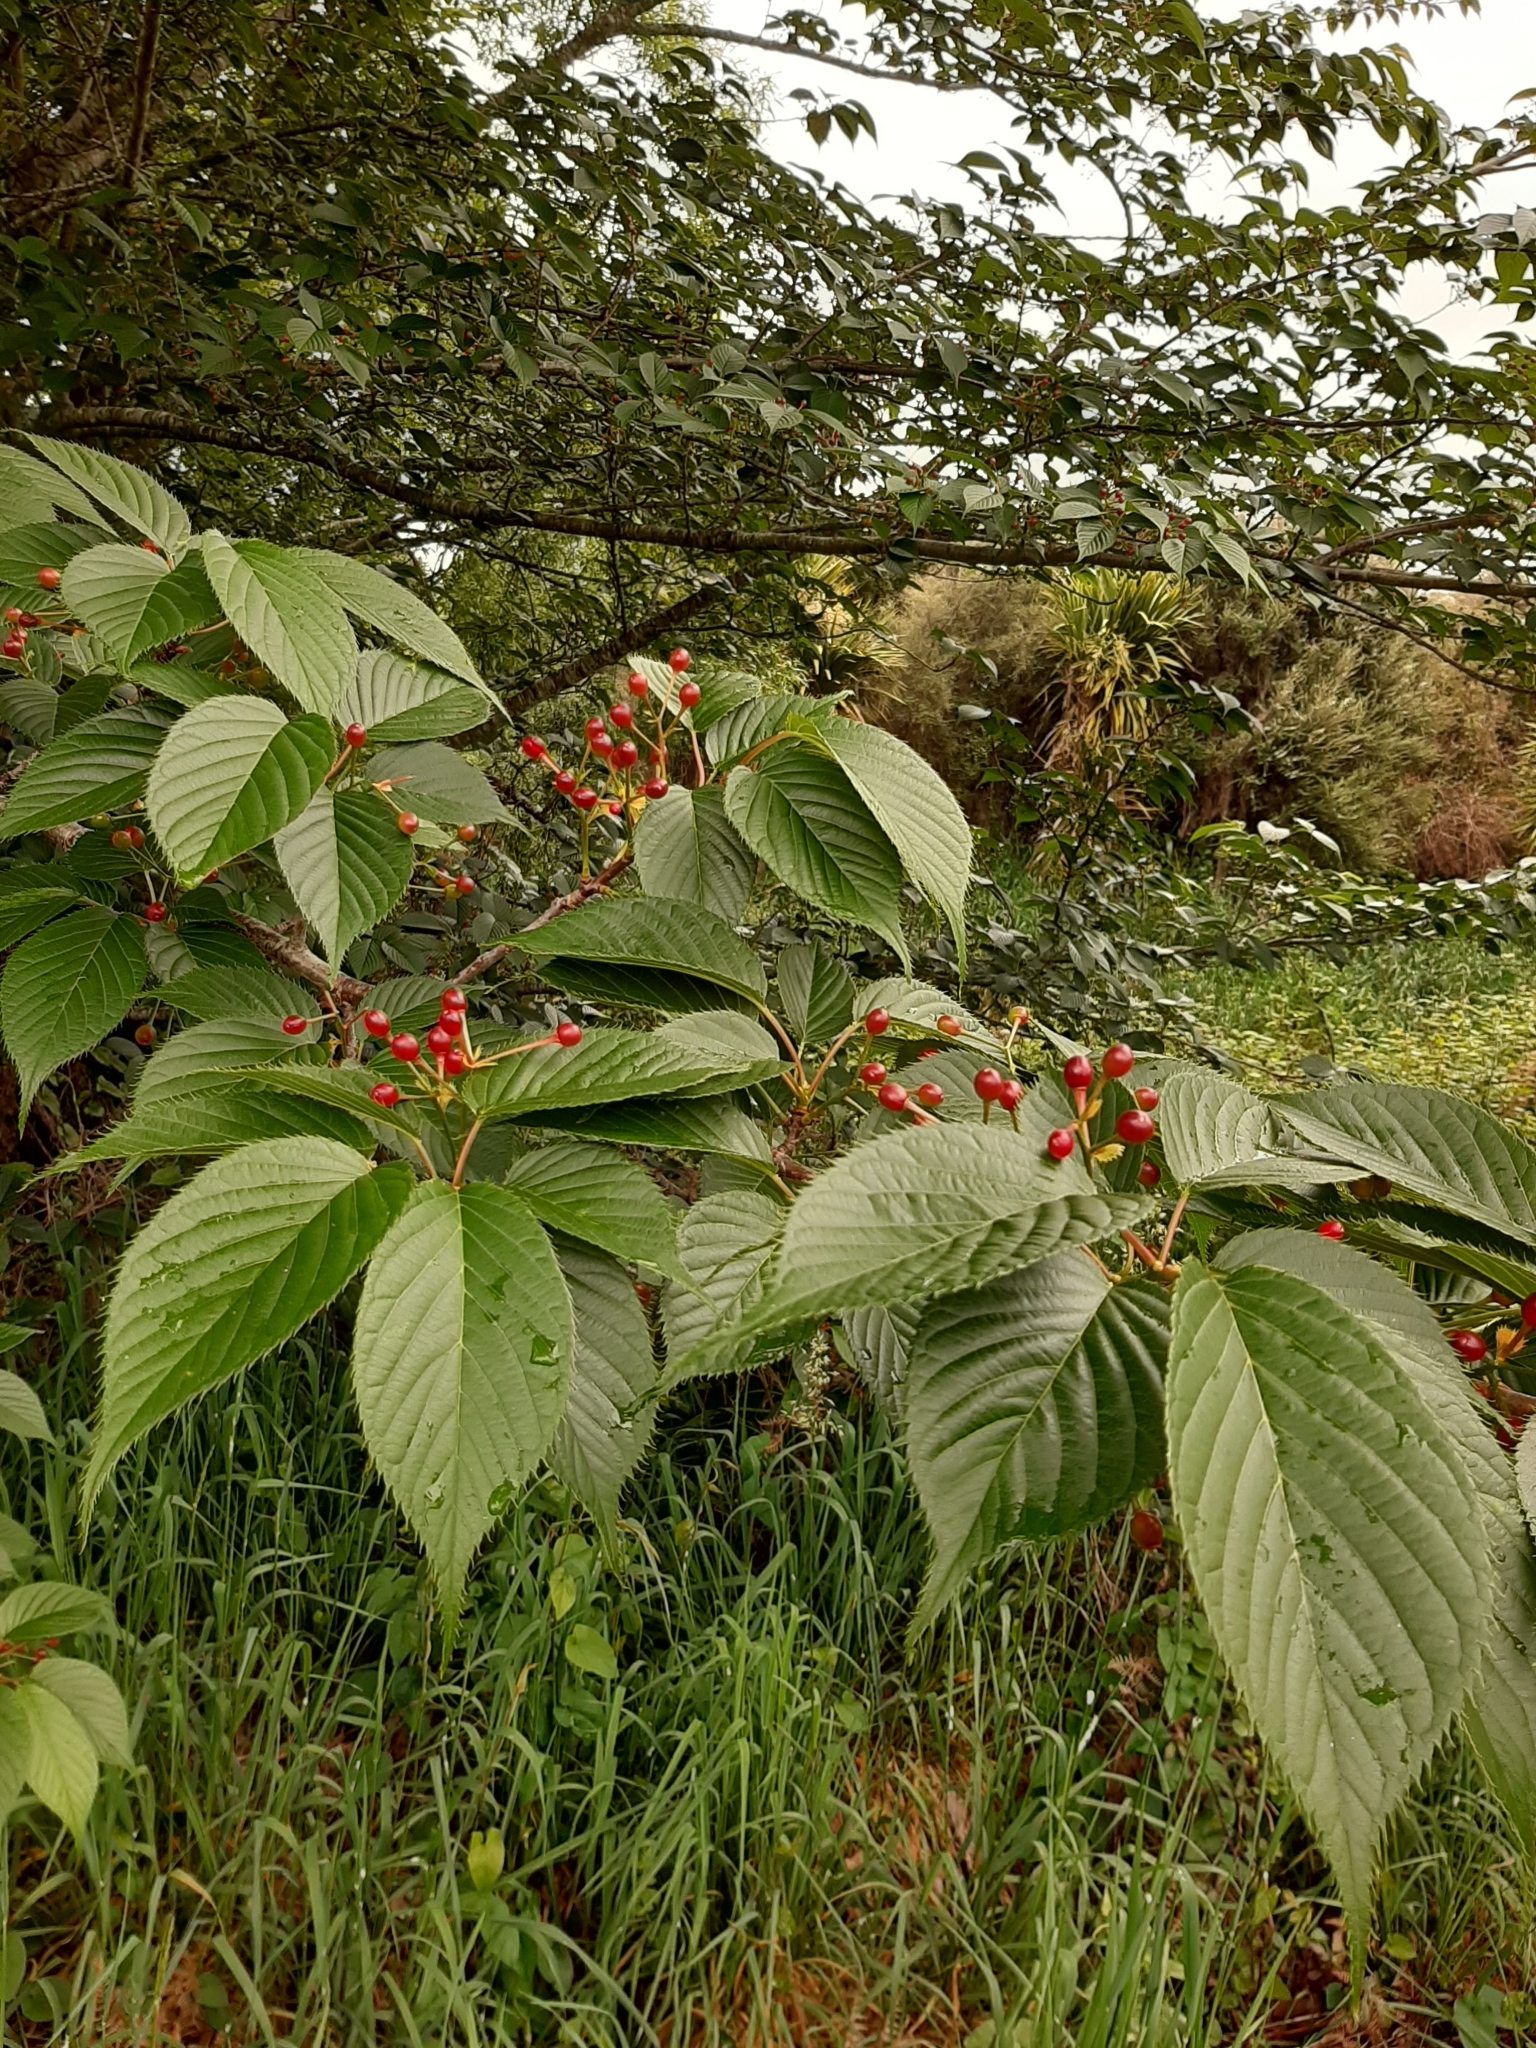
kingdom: Plantae
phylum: Tracheophyta
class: Magnoliopsida
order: Rosales
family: Rosaceae
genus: Prunus
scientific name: Prunus serrulata
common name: Japanese cherry
